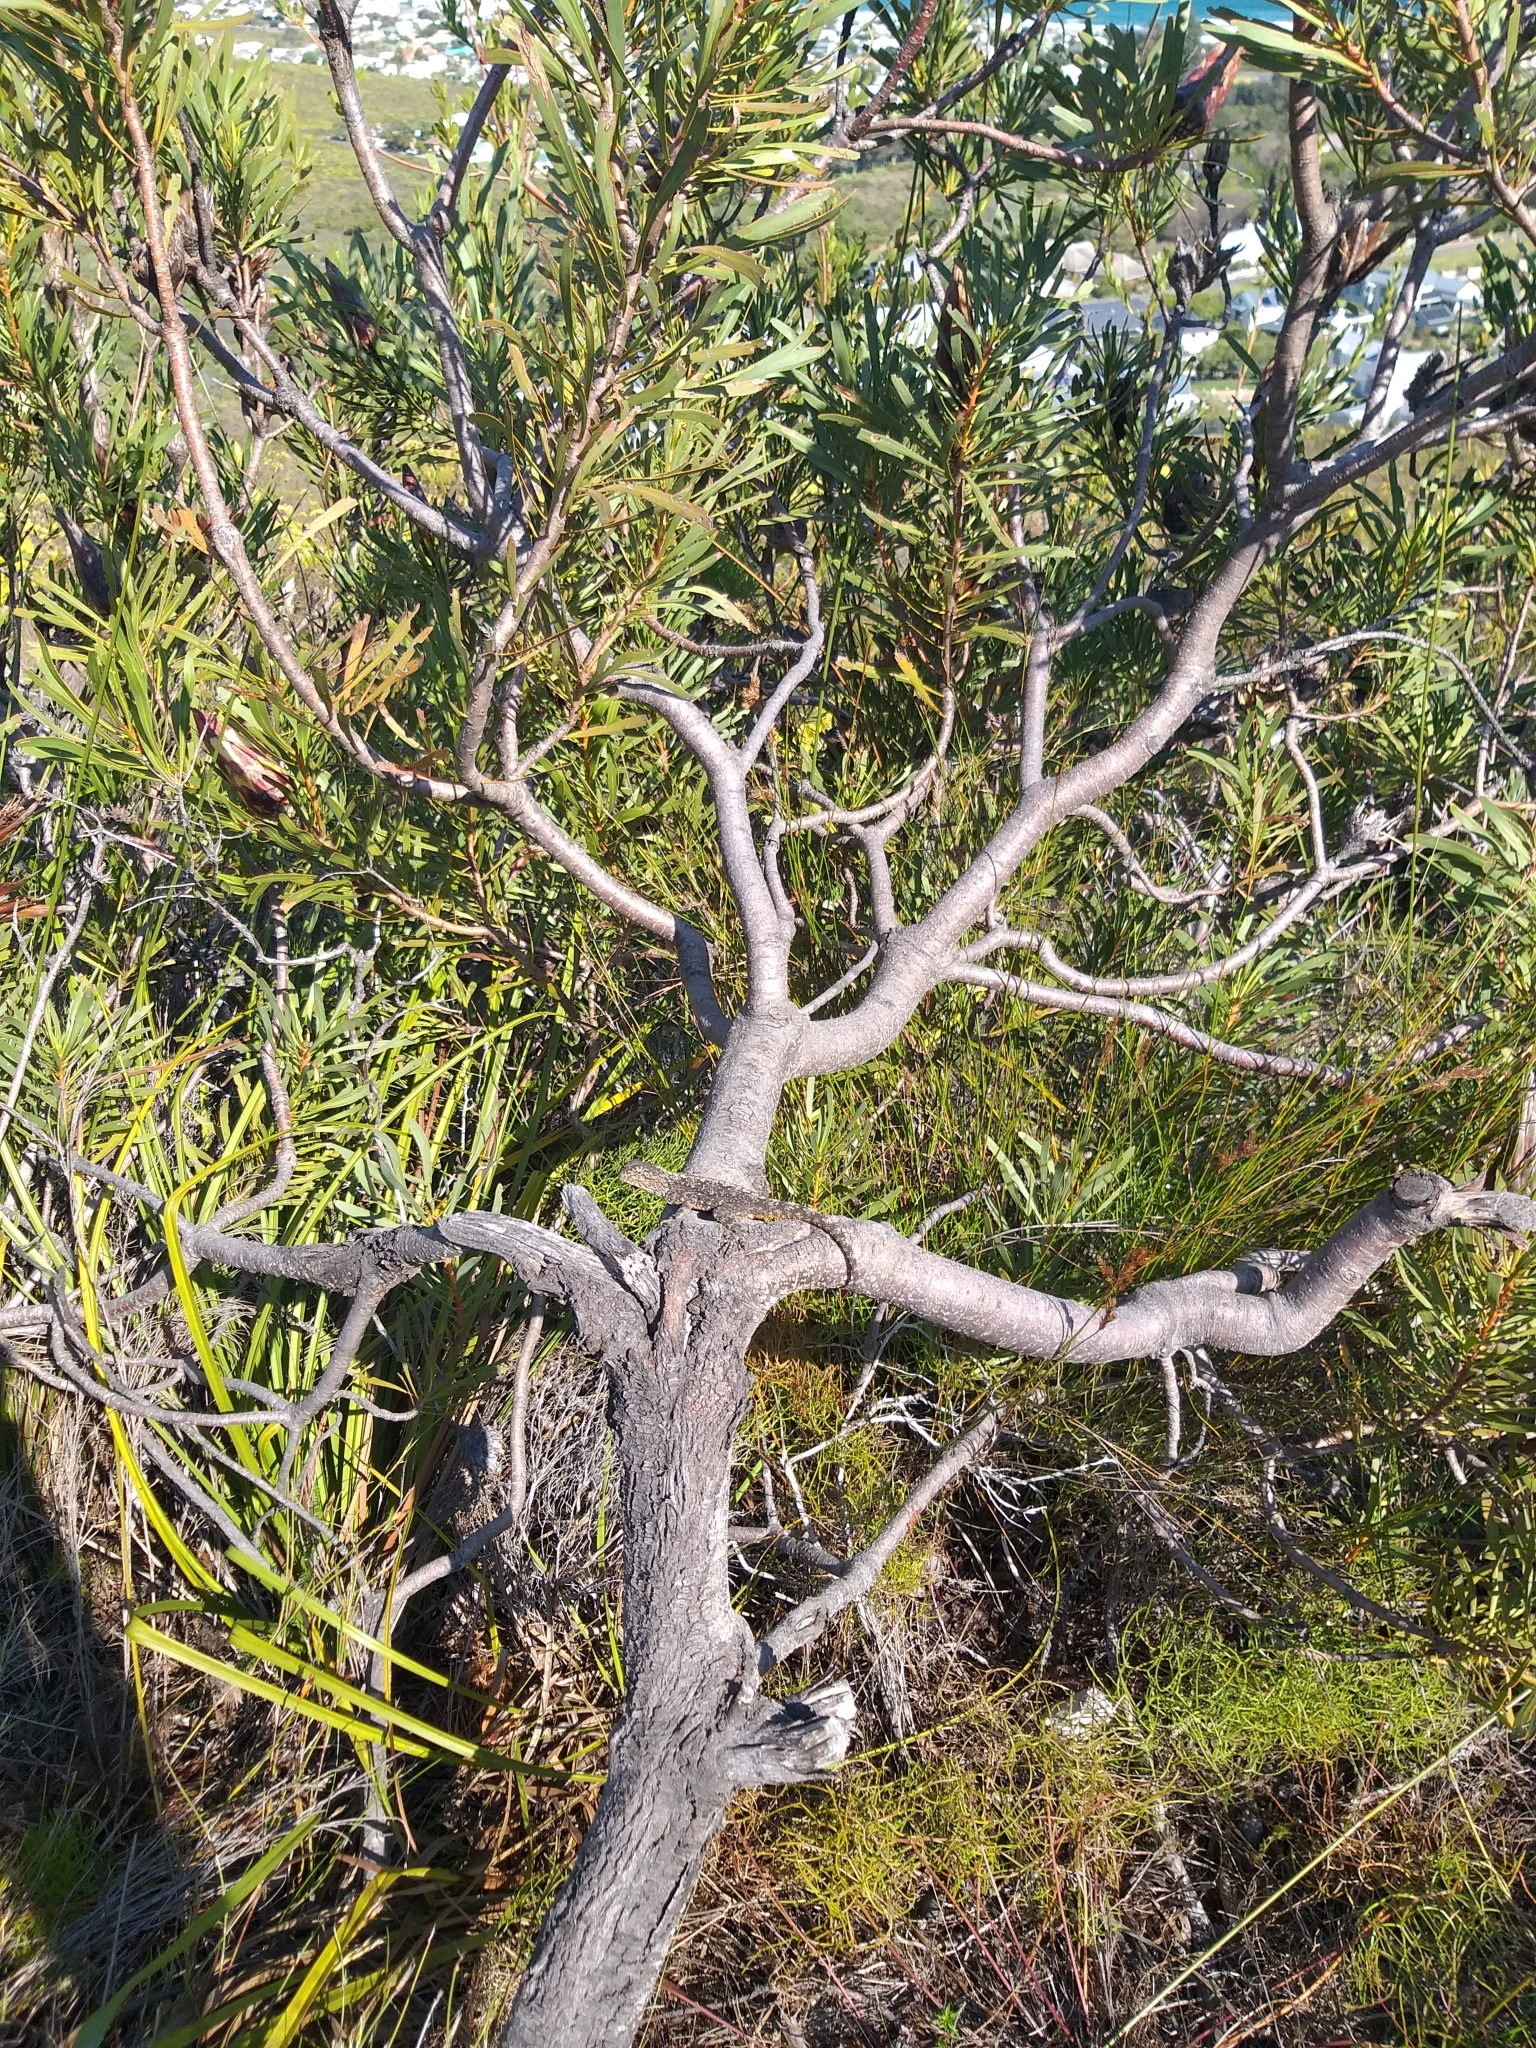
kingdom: Animalia
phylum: Chordata
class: Squamata
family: Agamidae
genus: Agama
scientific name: Agama atra
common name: Southern african rock agama
